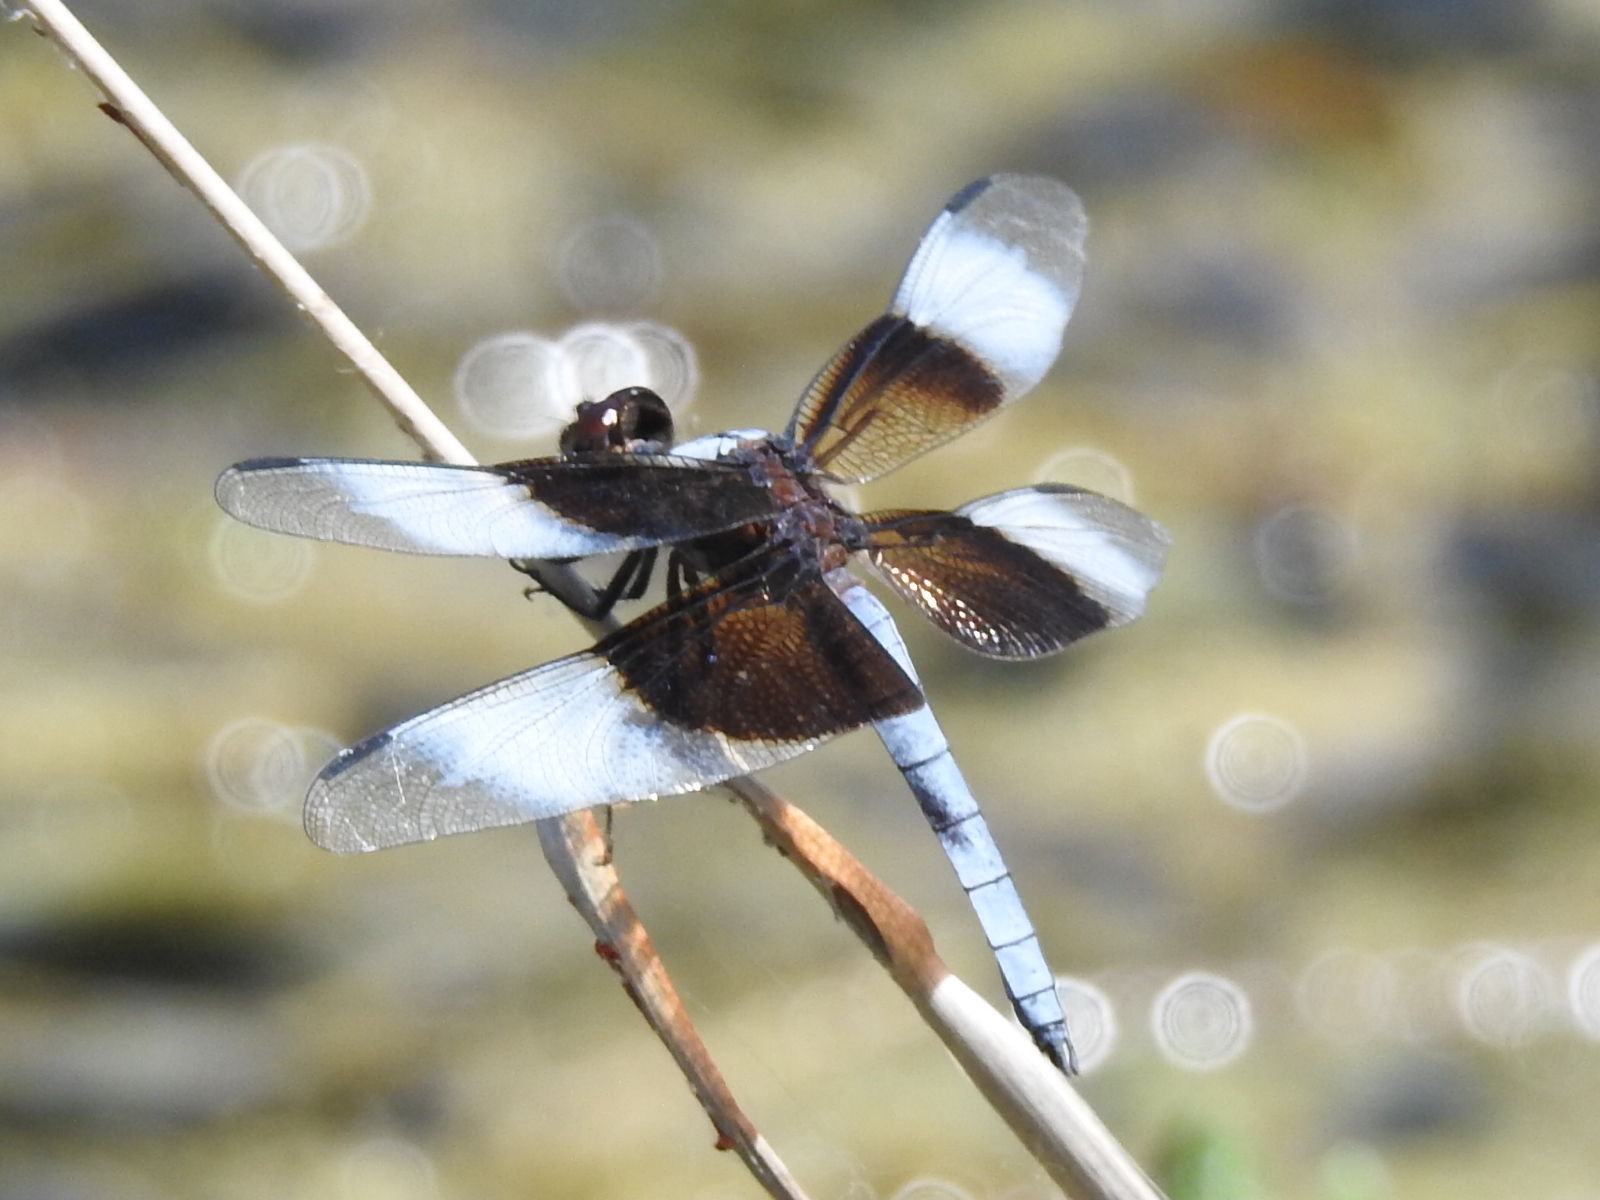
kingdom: Animalia
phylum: Arthropoda
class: Insecta
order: Odonata
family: Libellulidae
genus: Libellula
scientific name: Libellula luctuosa
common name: Widow skimmer
